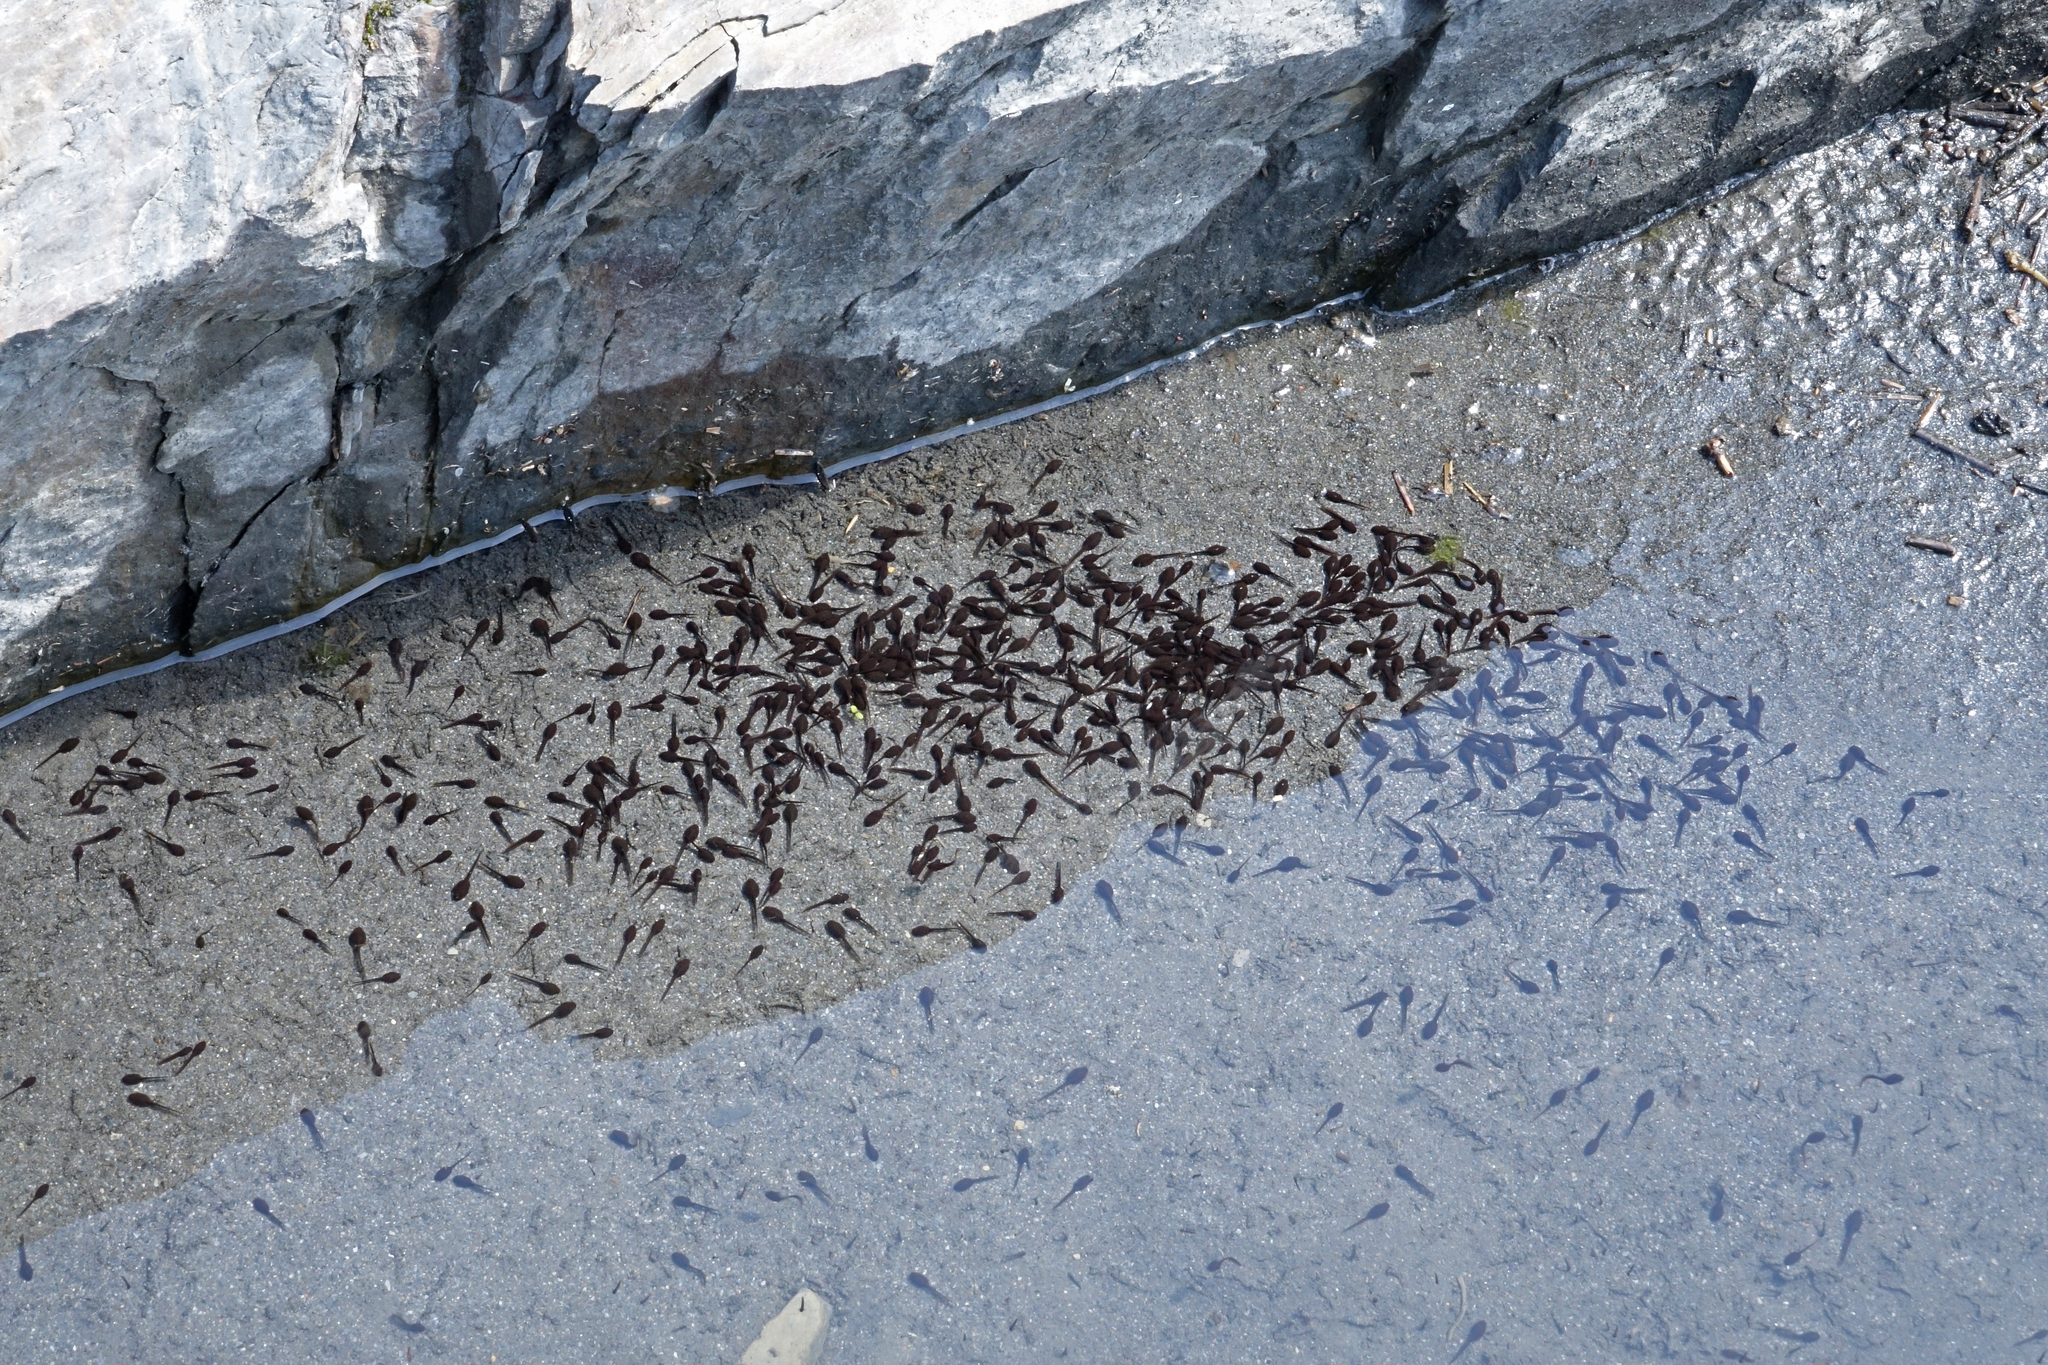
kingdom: Animalia
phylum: Chordata
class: Amphibia
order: Anura
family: Bufonidae
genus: Bufotes
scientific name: Bufotes viridis
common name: European green toad
